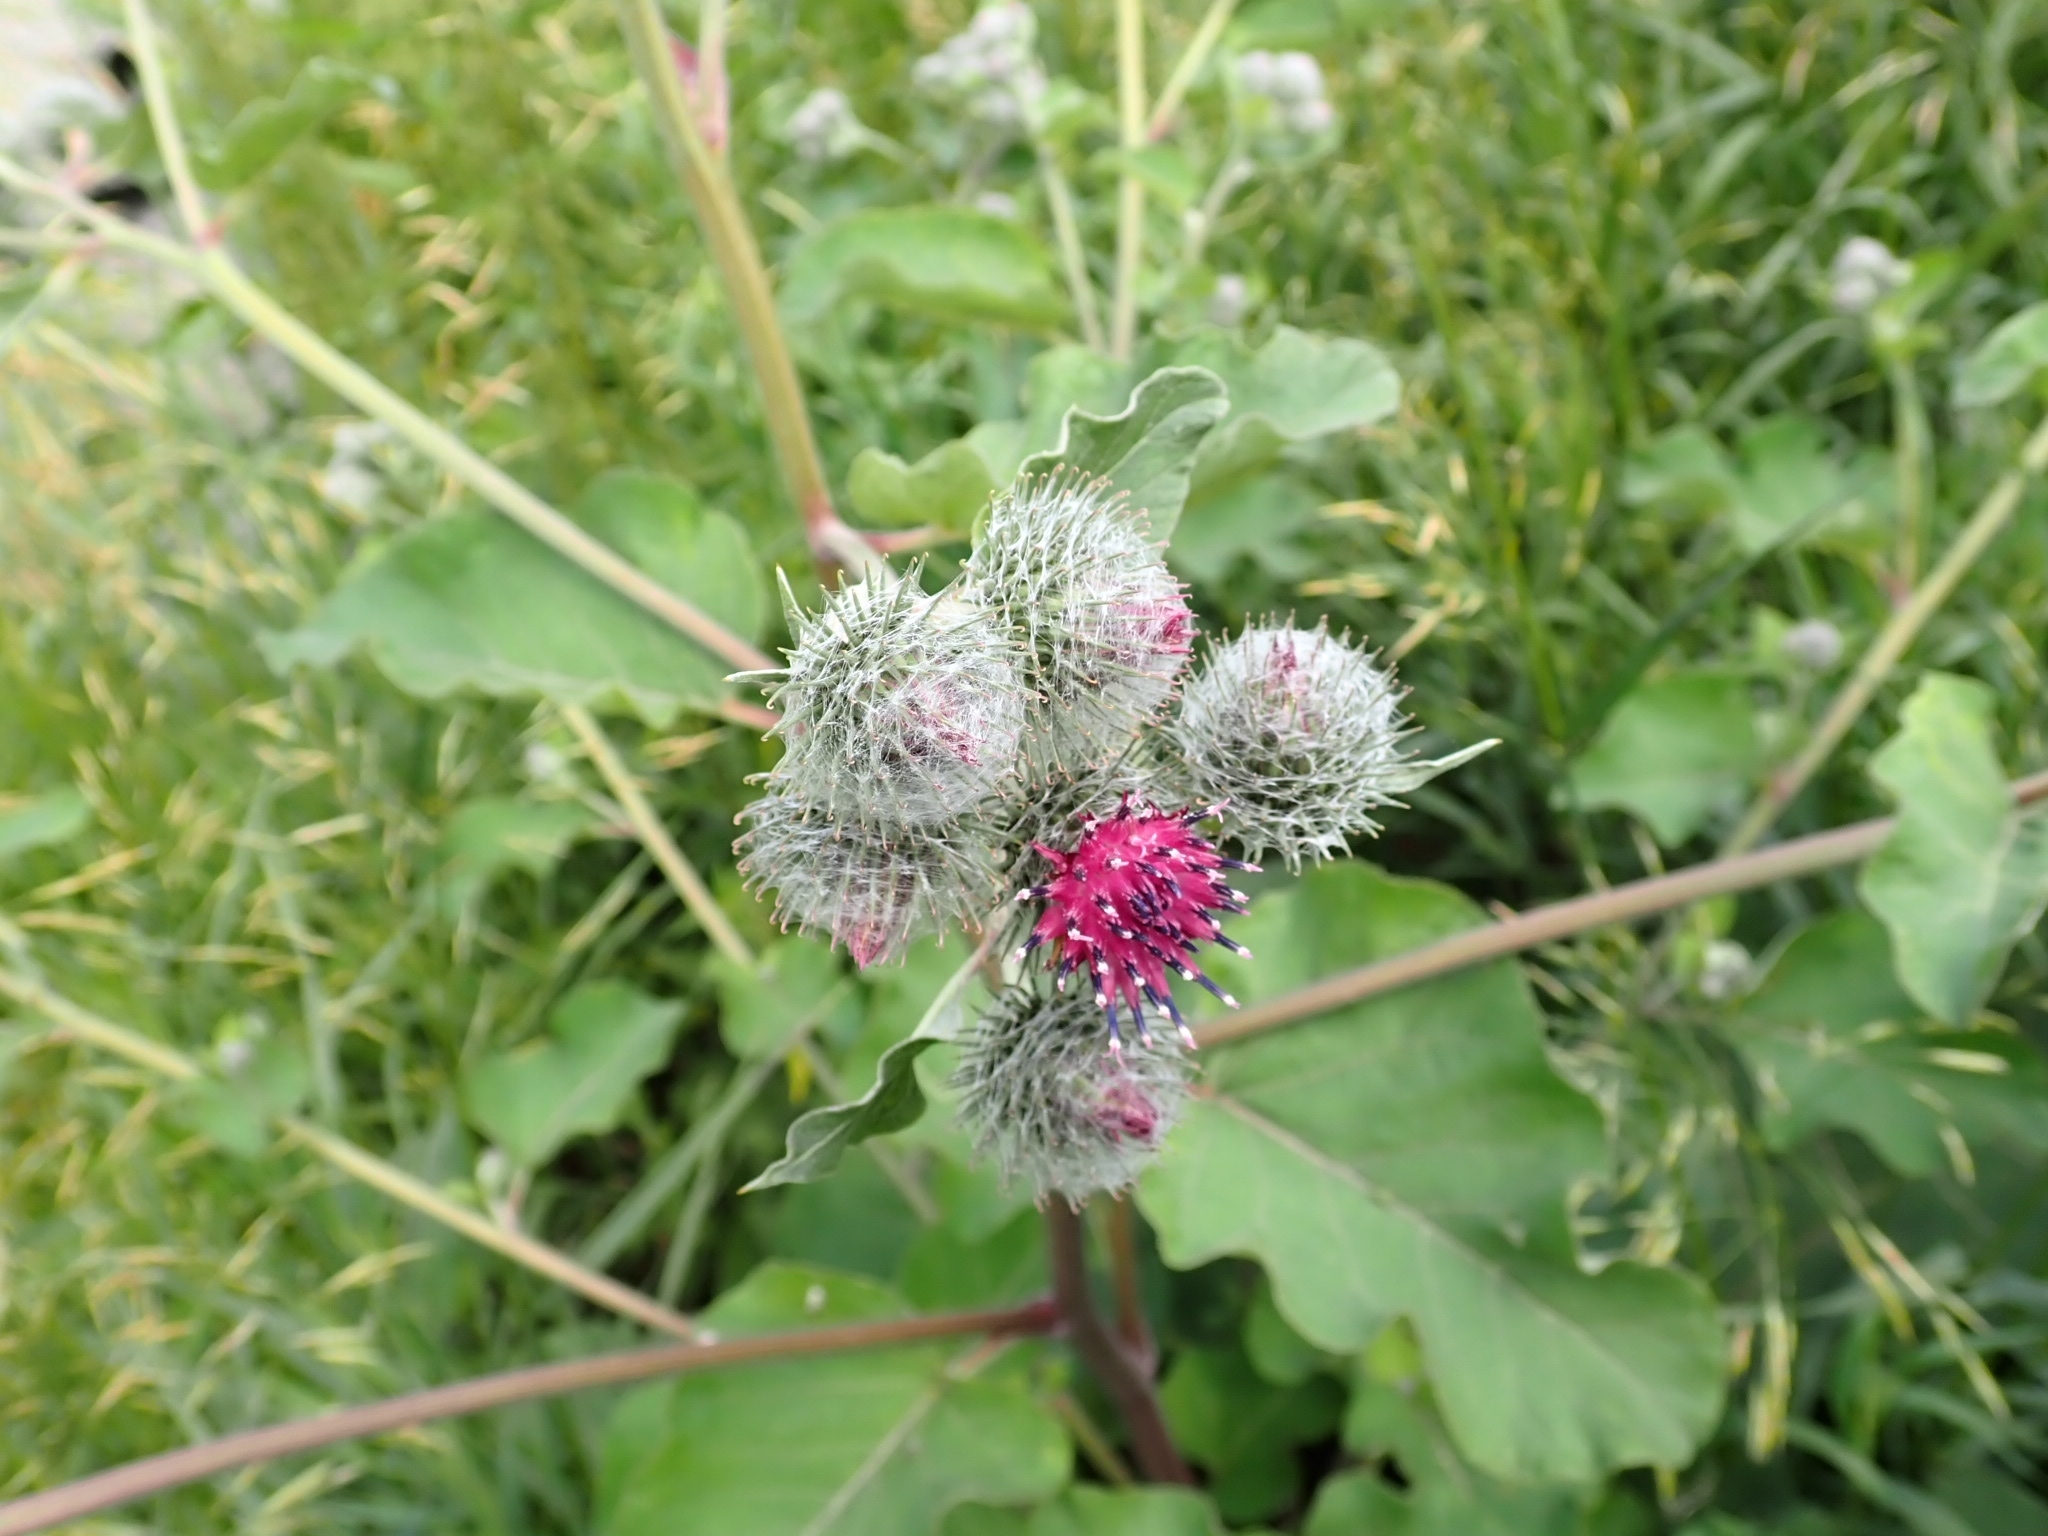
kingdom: Plantae
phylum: Tracheophyta
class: Magnoliopsida
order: Asterales
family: Asteraceae
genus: Arctium
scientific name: Arctium tomentosum
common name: Woolly burdock
